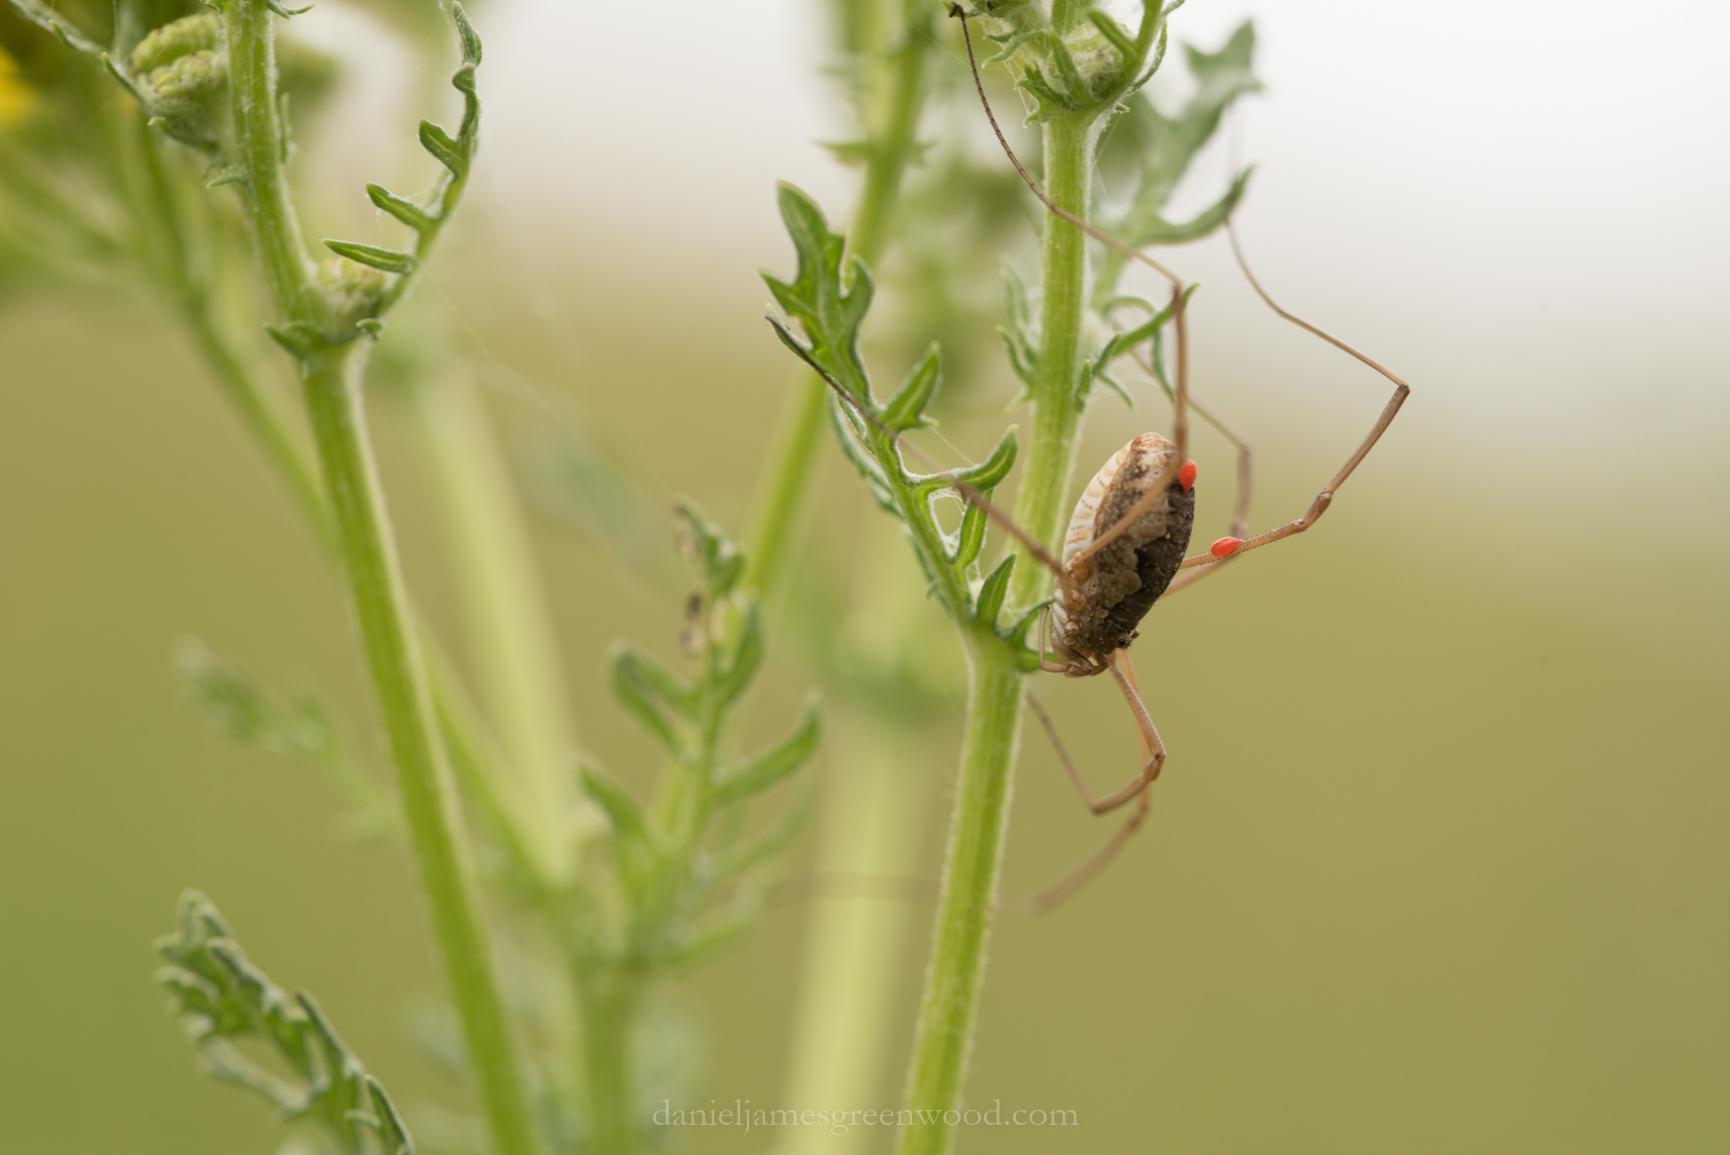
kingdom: Animalia
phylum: Arthropoda
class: Arachnida
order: Opiliones
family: Phalangiidae
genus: Phalangium
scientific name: Phalangium opilio
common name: Daddy longleg
